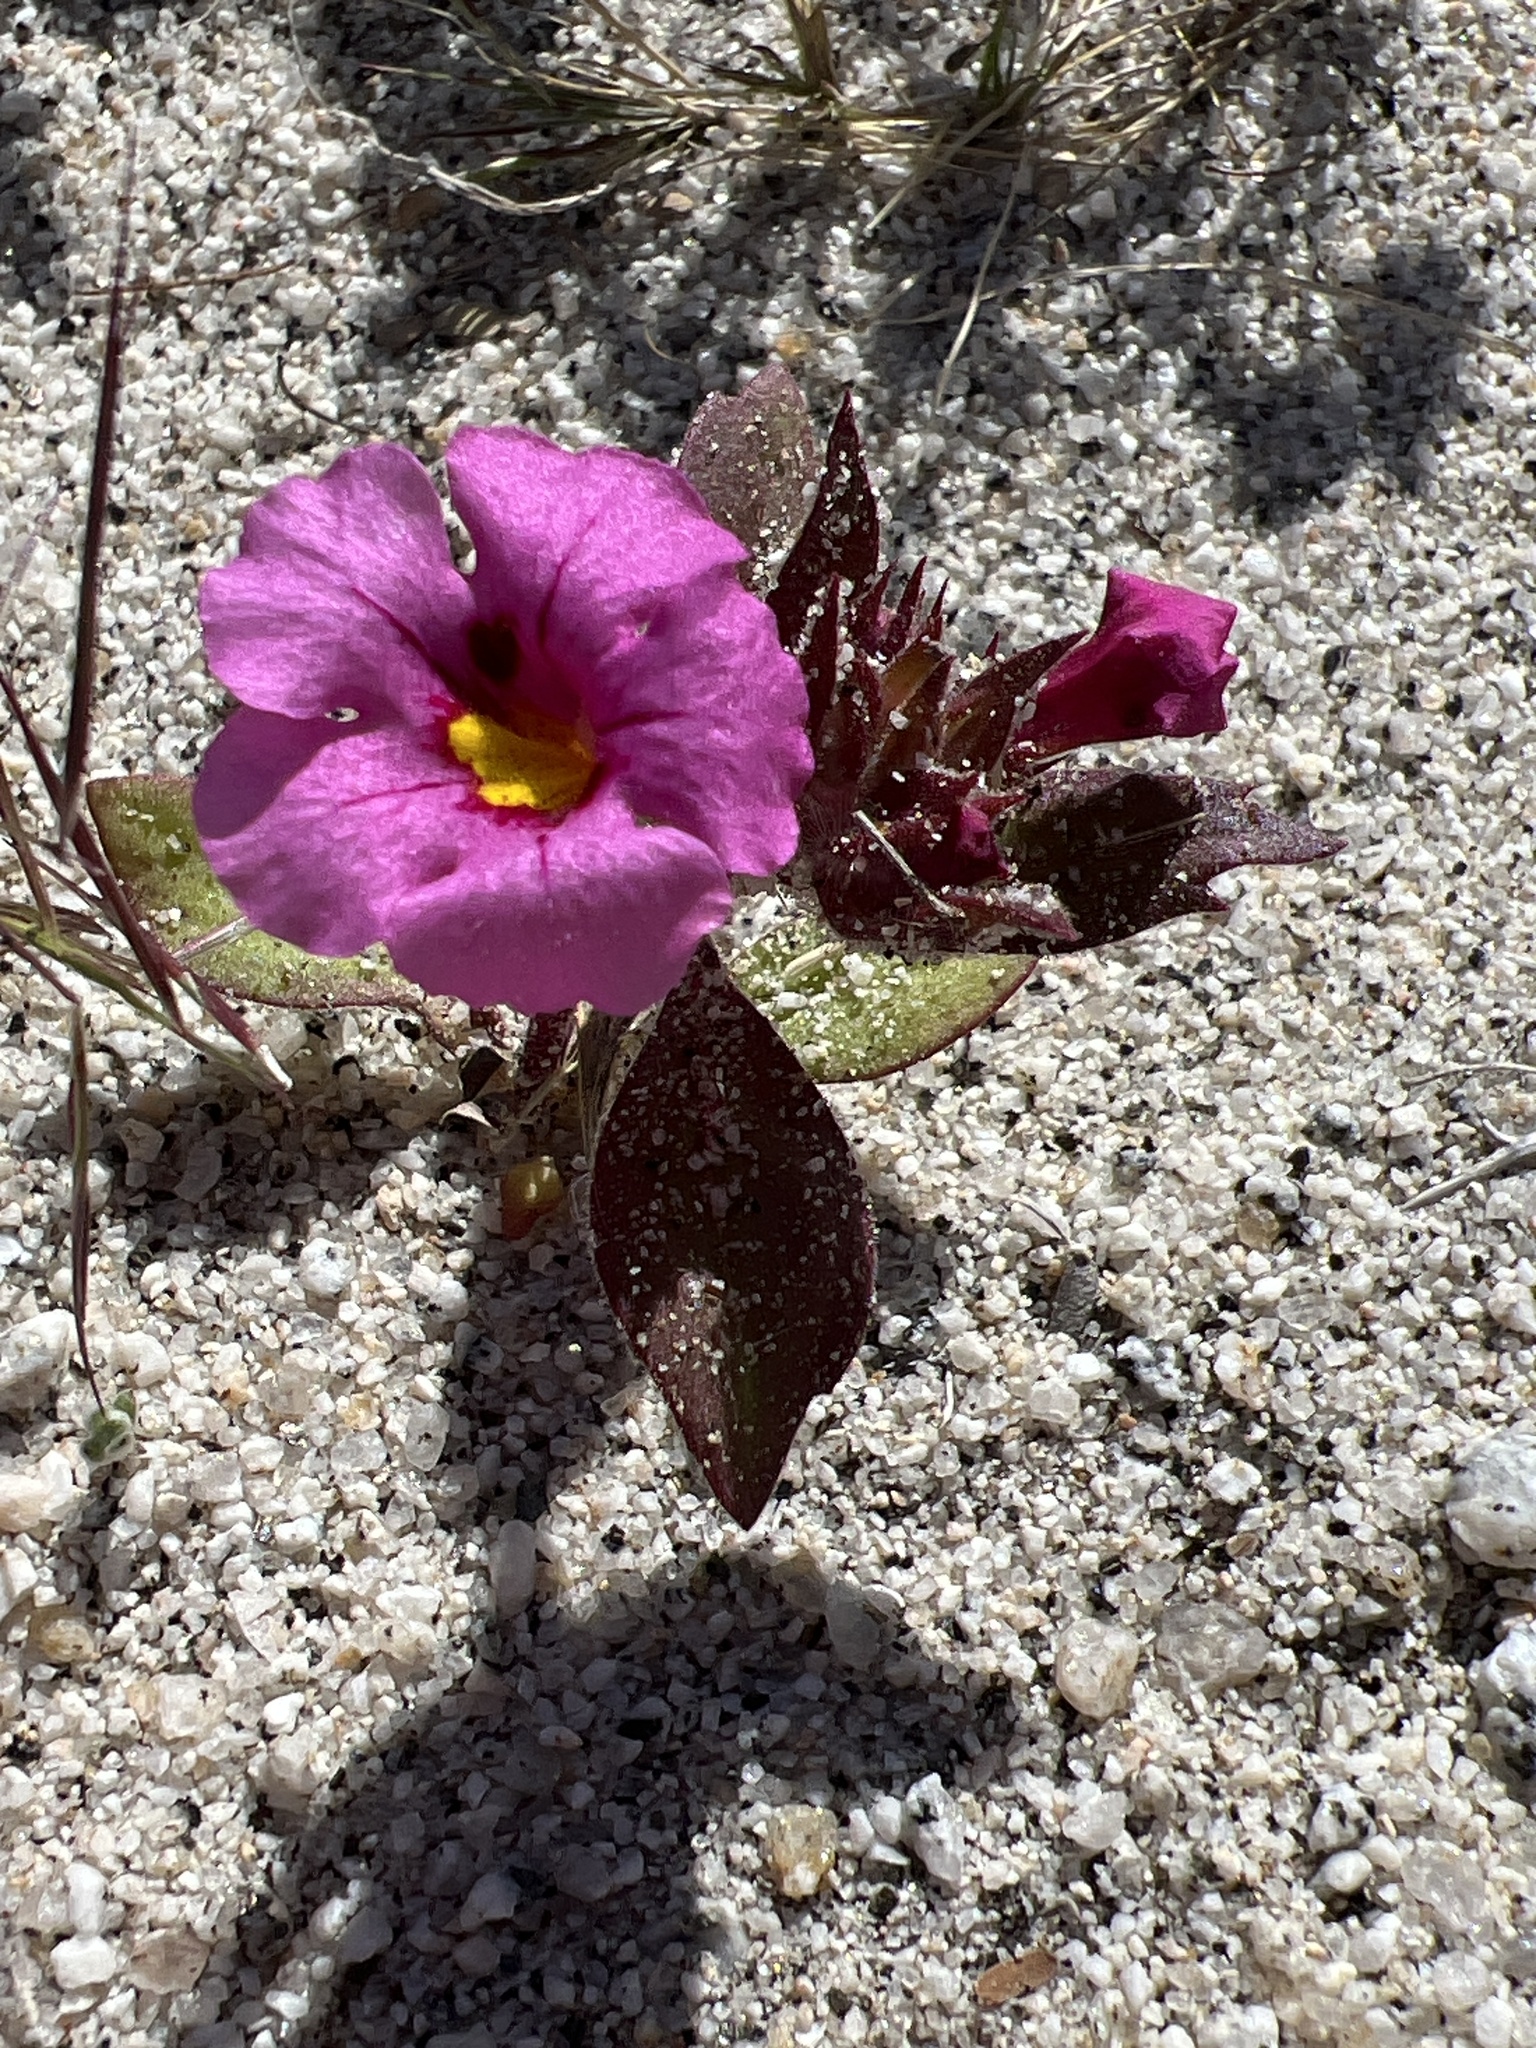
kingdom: Plantae
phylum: Tracheophyta
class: Magnoliopsida
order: Lamiales
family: Phrymaceae
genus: Diplacus
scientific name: Diplacus bigelovii
